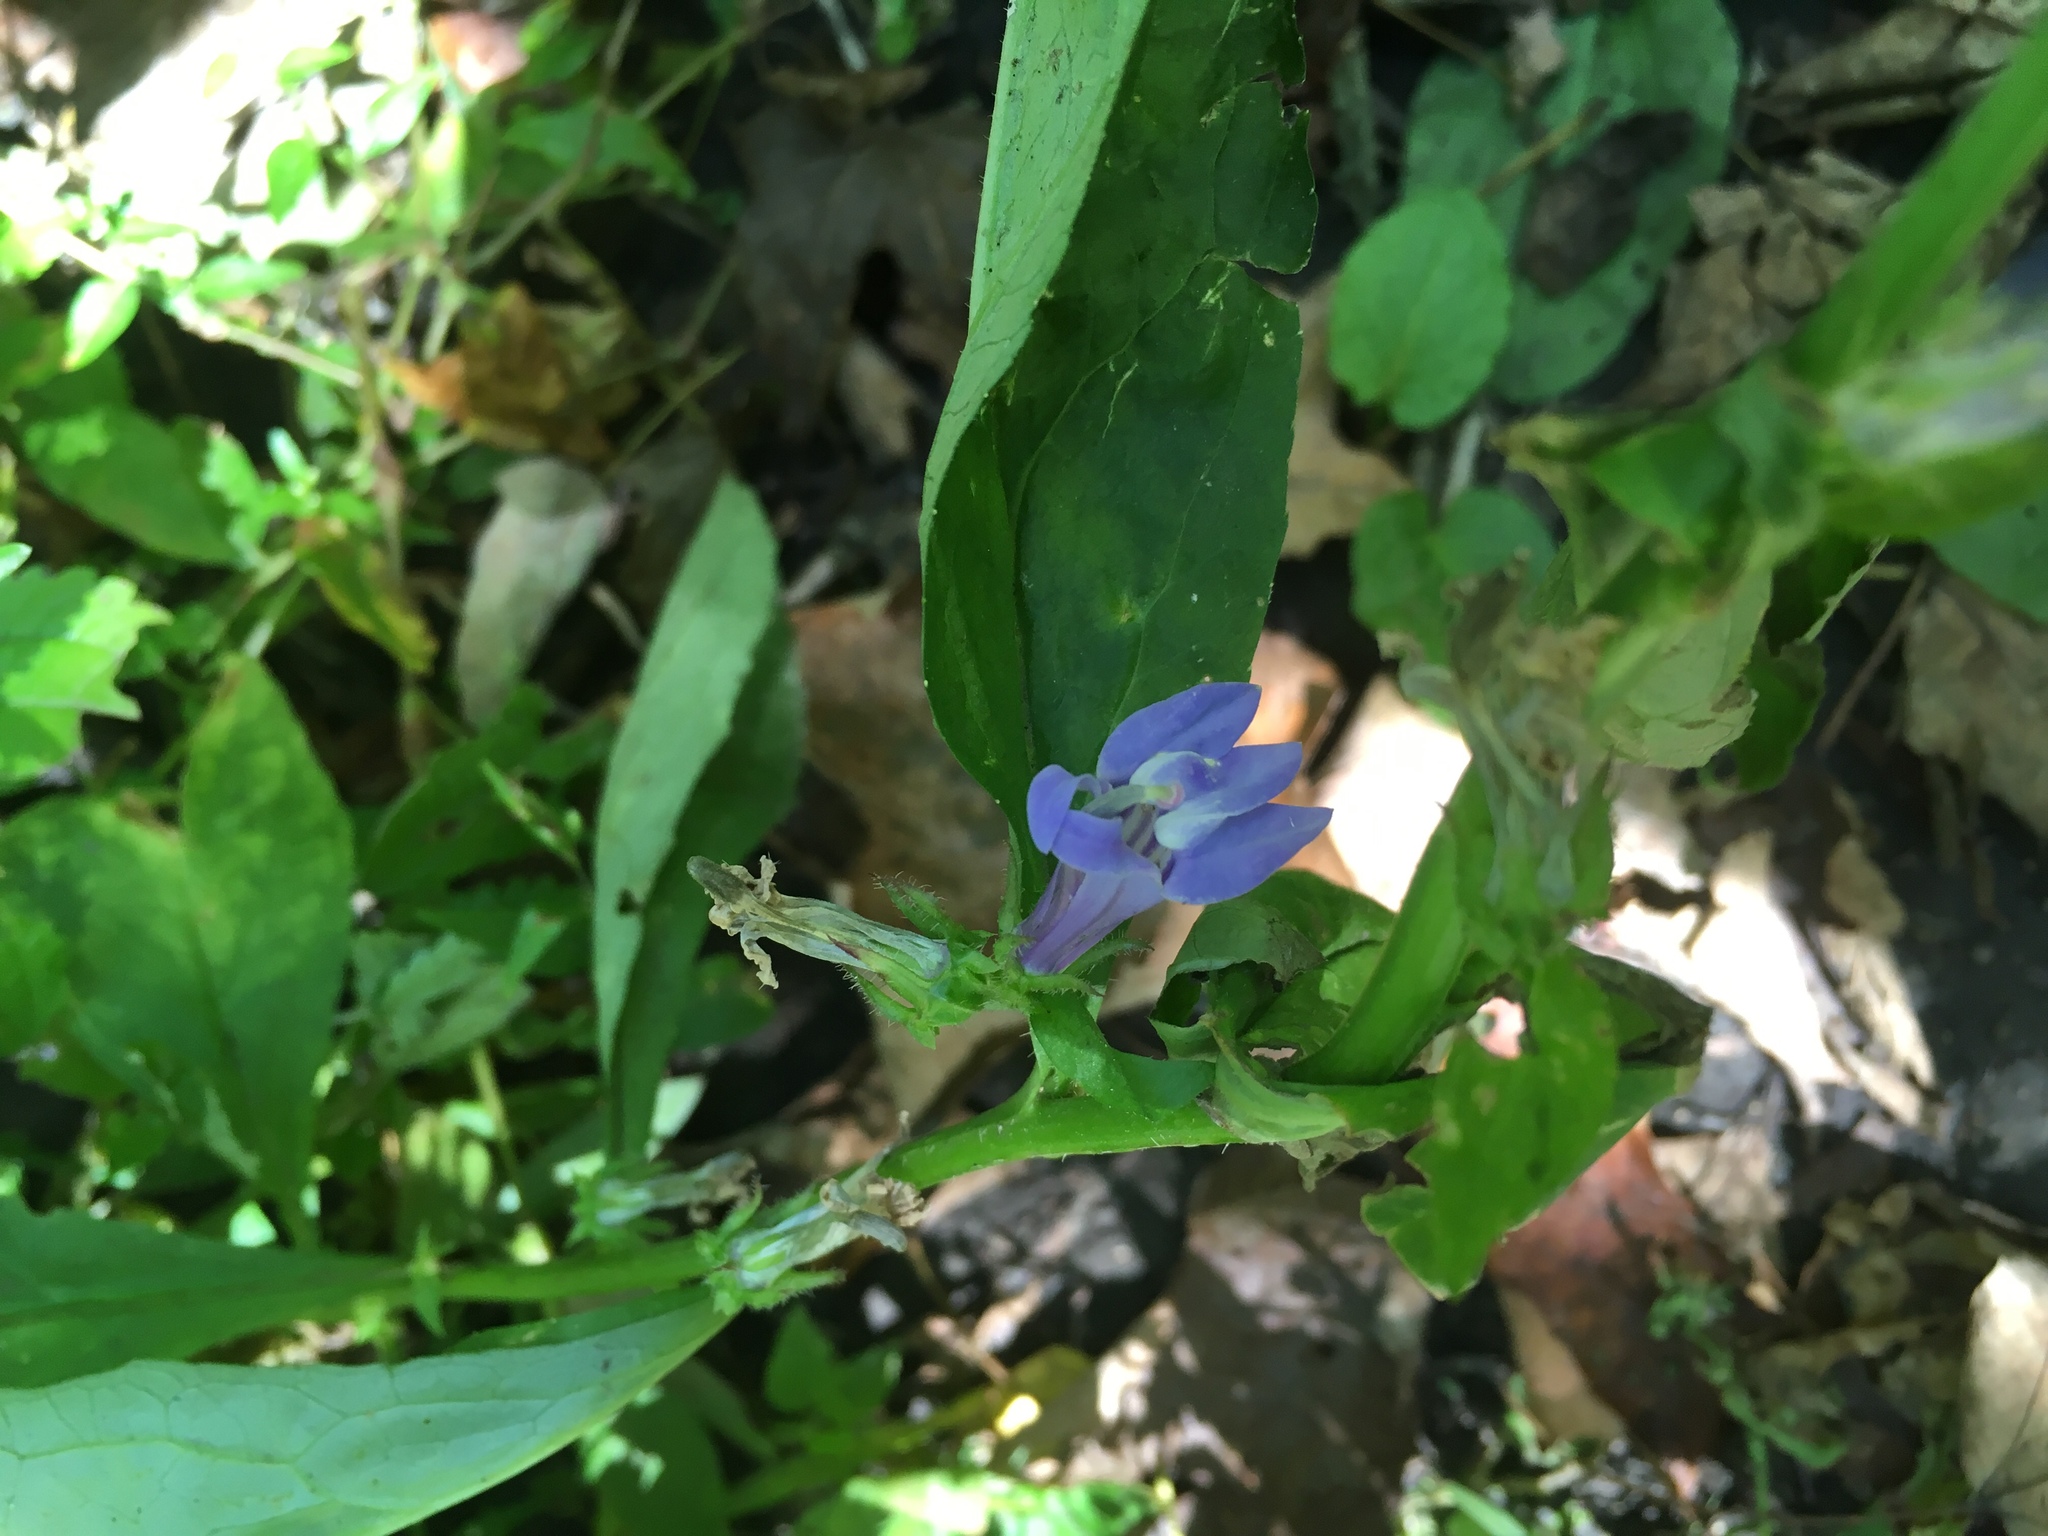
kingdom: Plantae
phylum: Tracheophyta
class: Magnoliopsida
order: Asterales
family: Campanulaceae
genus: Lobelia
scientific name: Lobelia siphilitica
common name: Great lobelia
